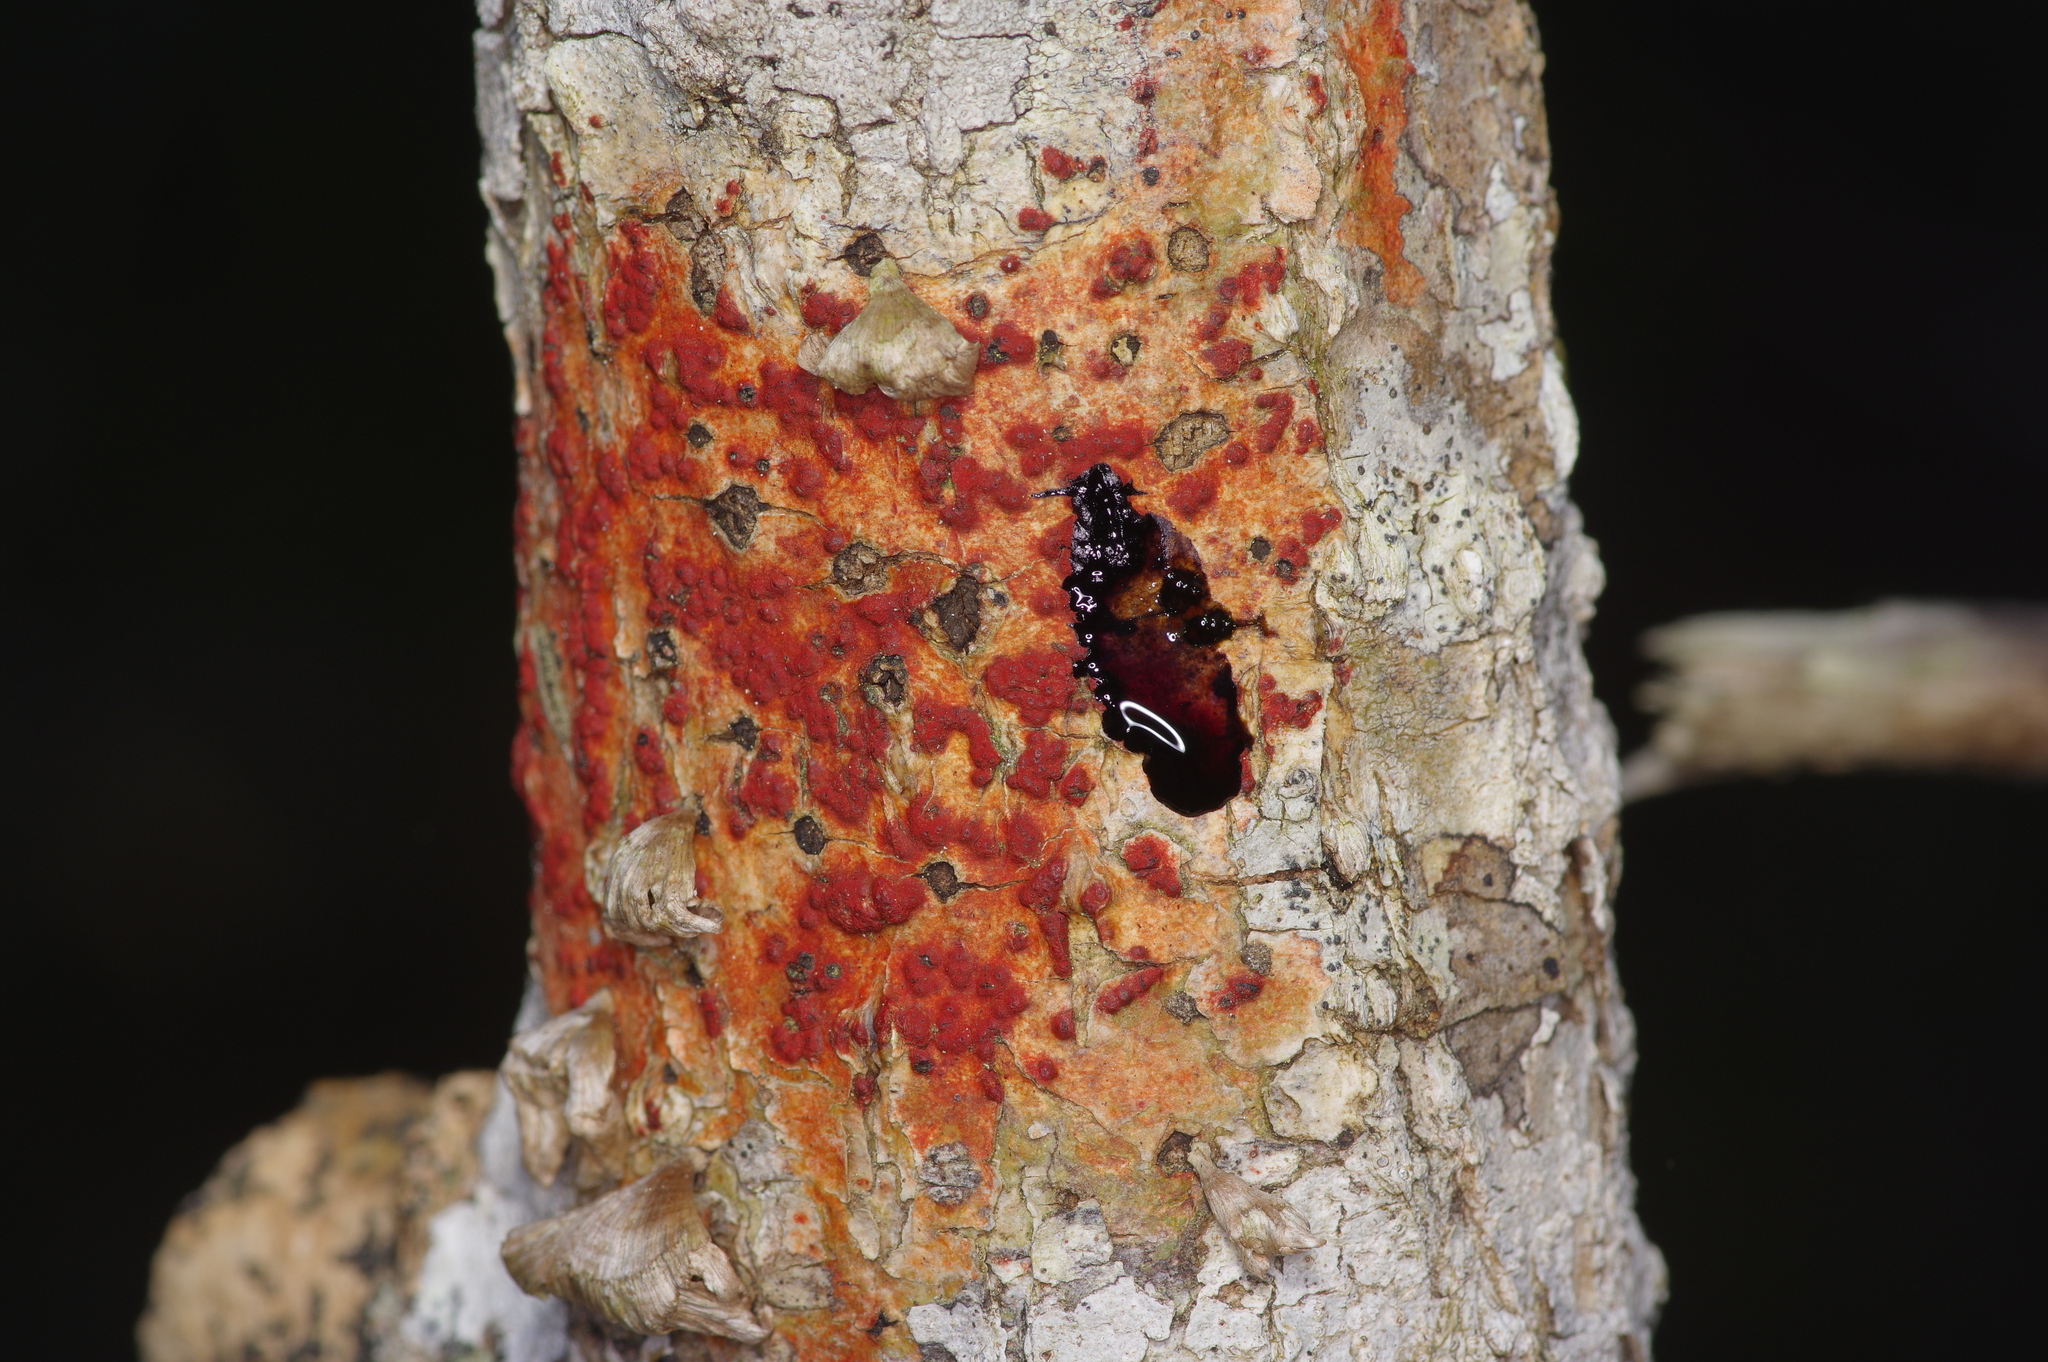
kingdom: Fungi
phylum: Ascomycota
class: Eurotiomycetes
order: Pyrenulales
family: Pyrenulaceae
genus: Pyrenula
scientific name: Pyrenula cruenta
